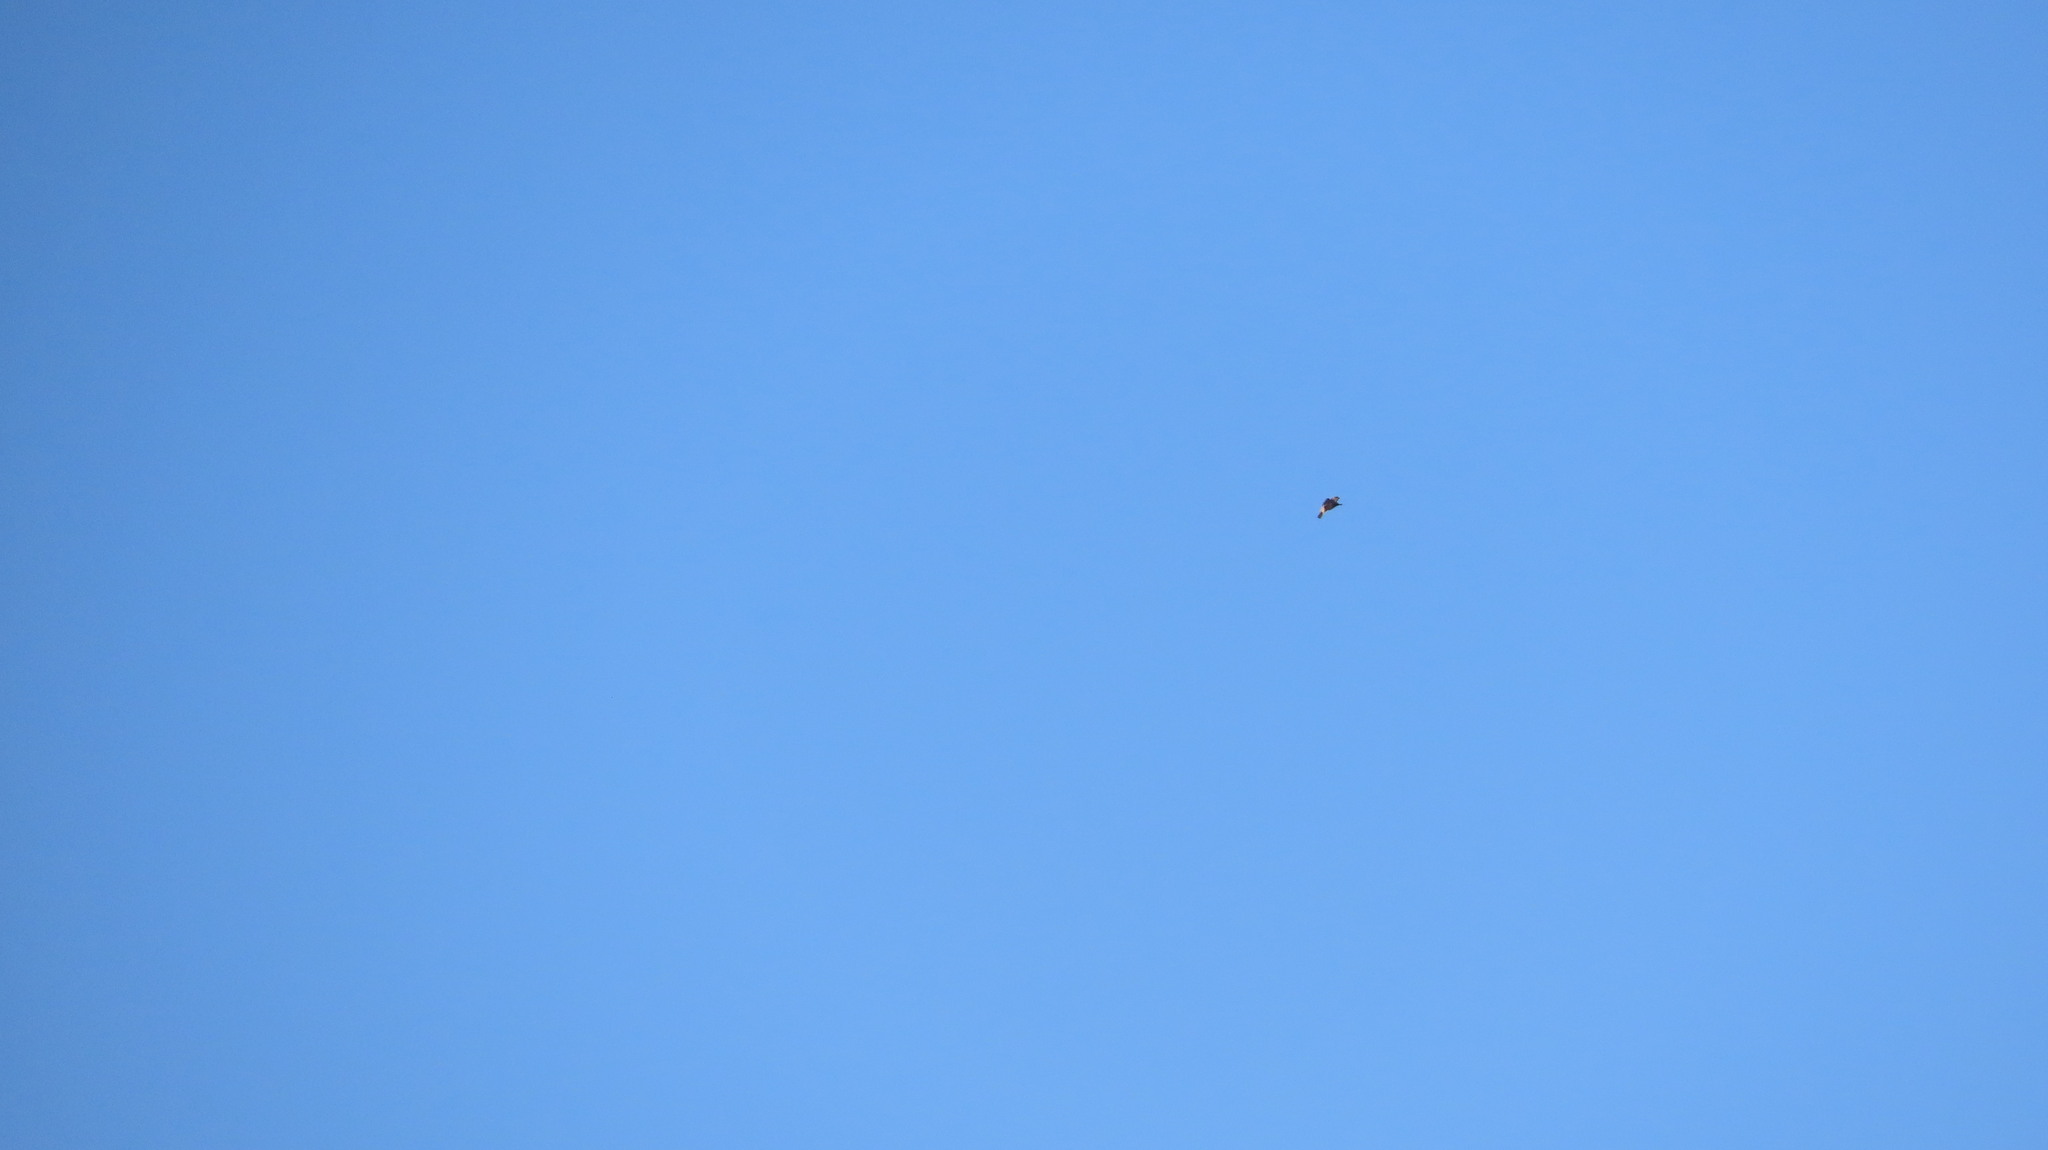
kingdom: Animalia
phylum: Chordata
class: Aves
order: Passeriformes
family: Hirundinidae
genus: Cecropis
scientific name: Cecropis daurica
